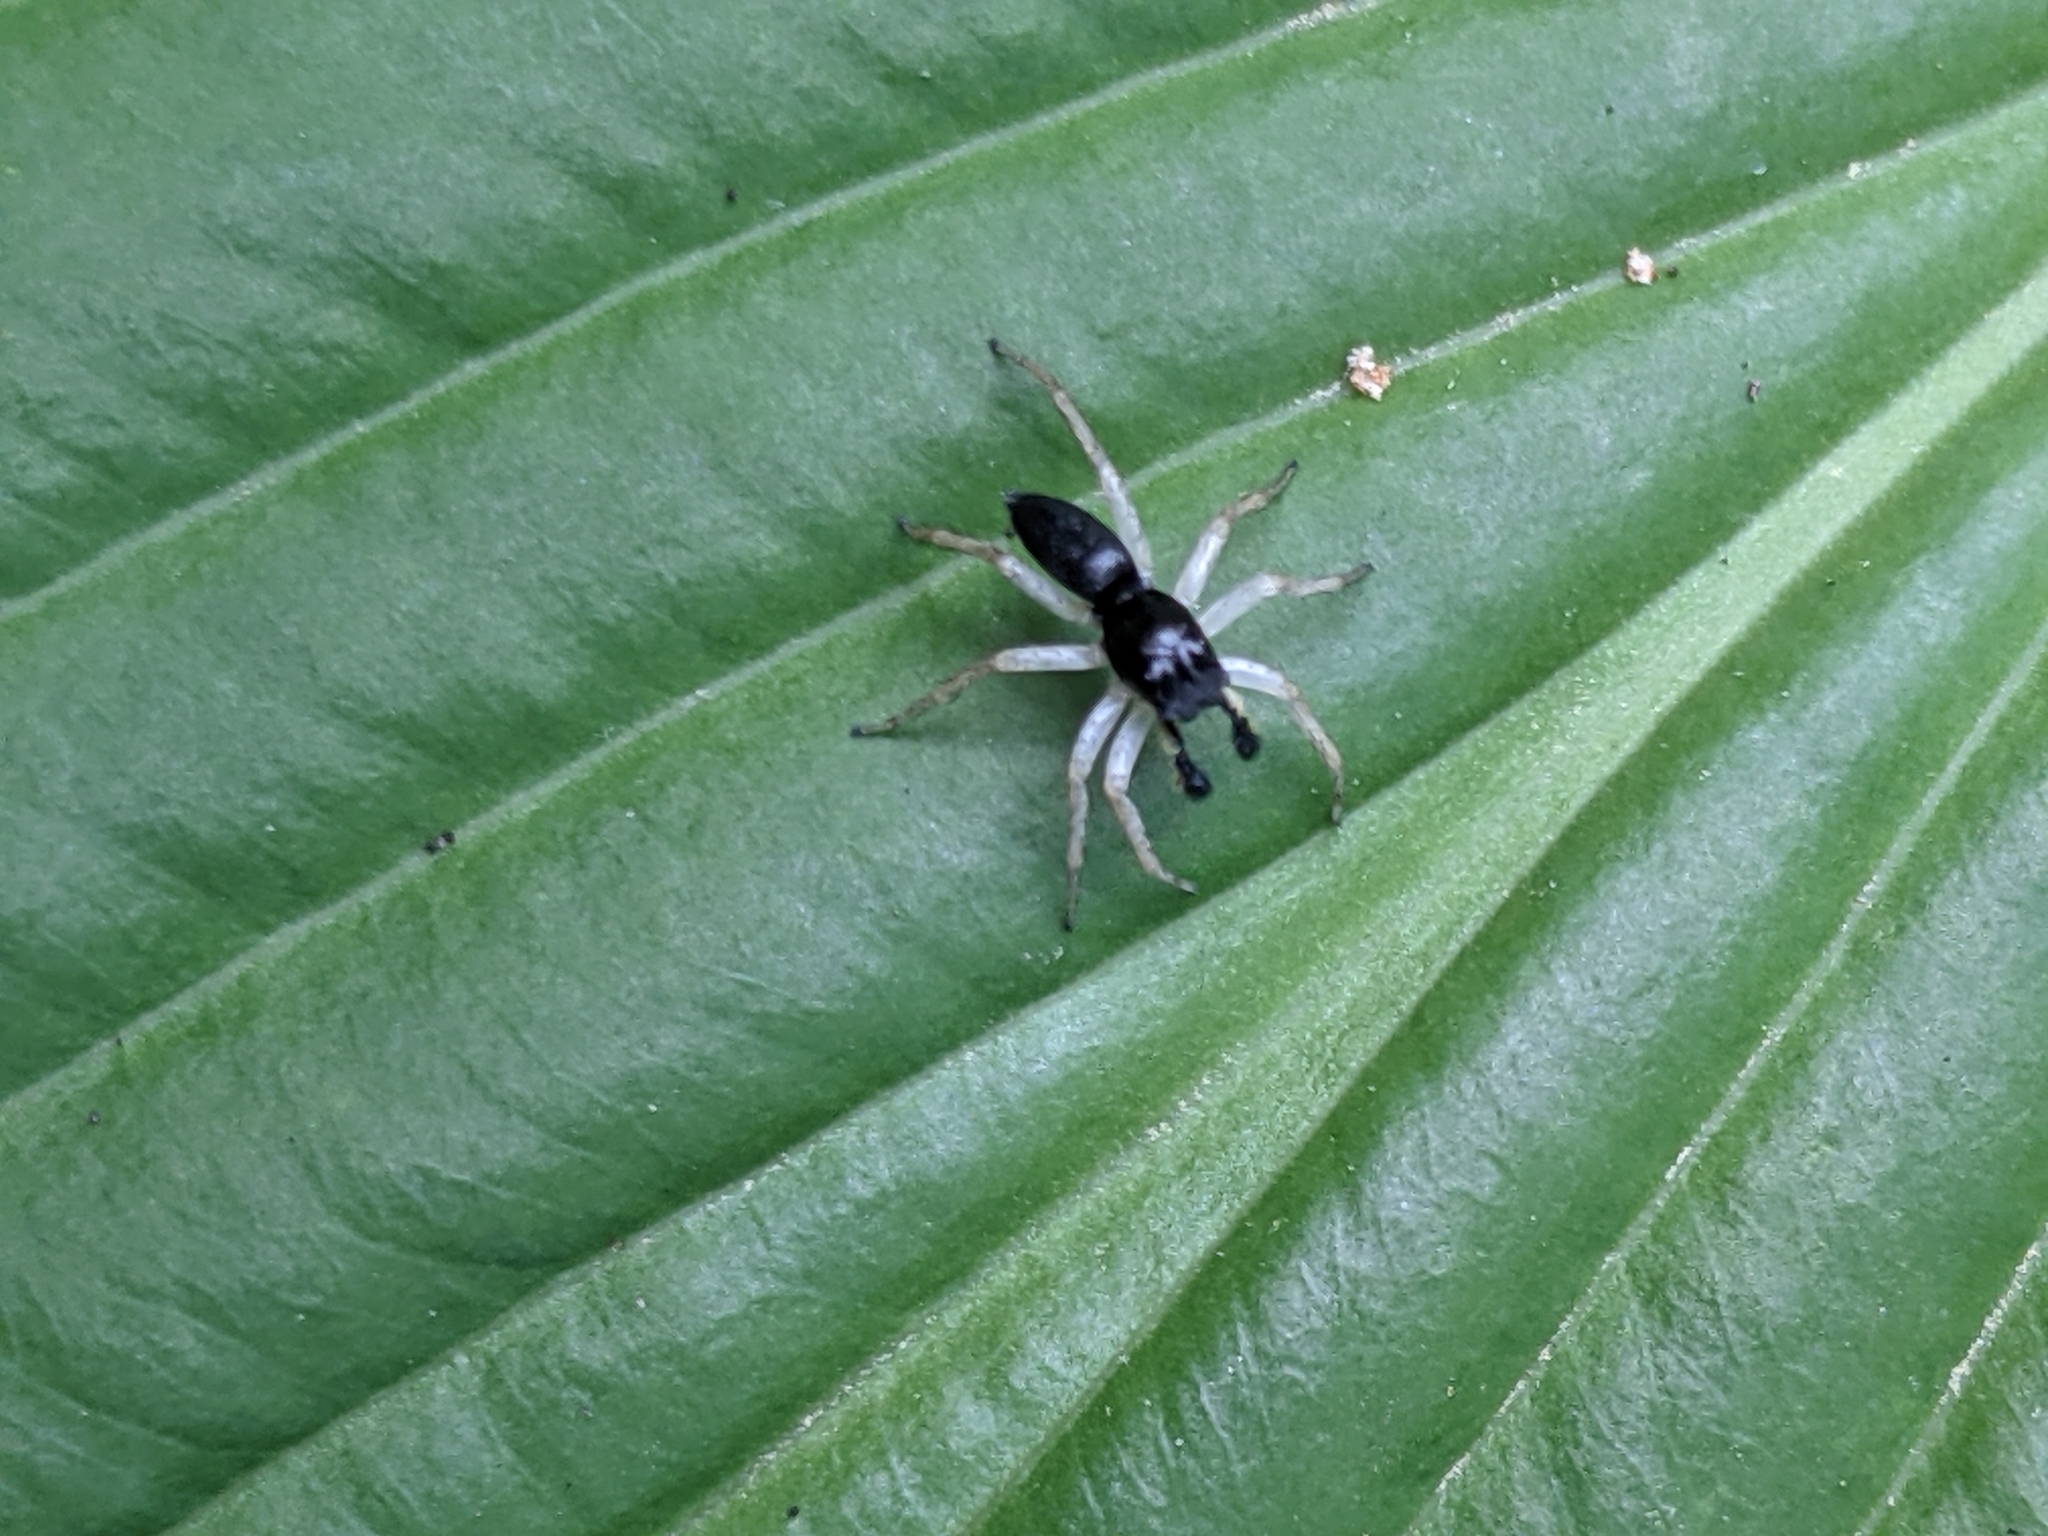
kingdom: Animalia
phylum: Arthropoda
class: Arachnida
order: Araneae
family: Salticidae
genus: Maevia
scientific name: Maevia inclemens
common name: Dimorphic jumper
